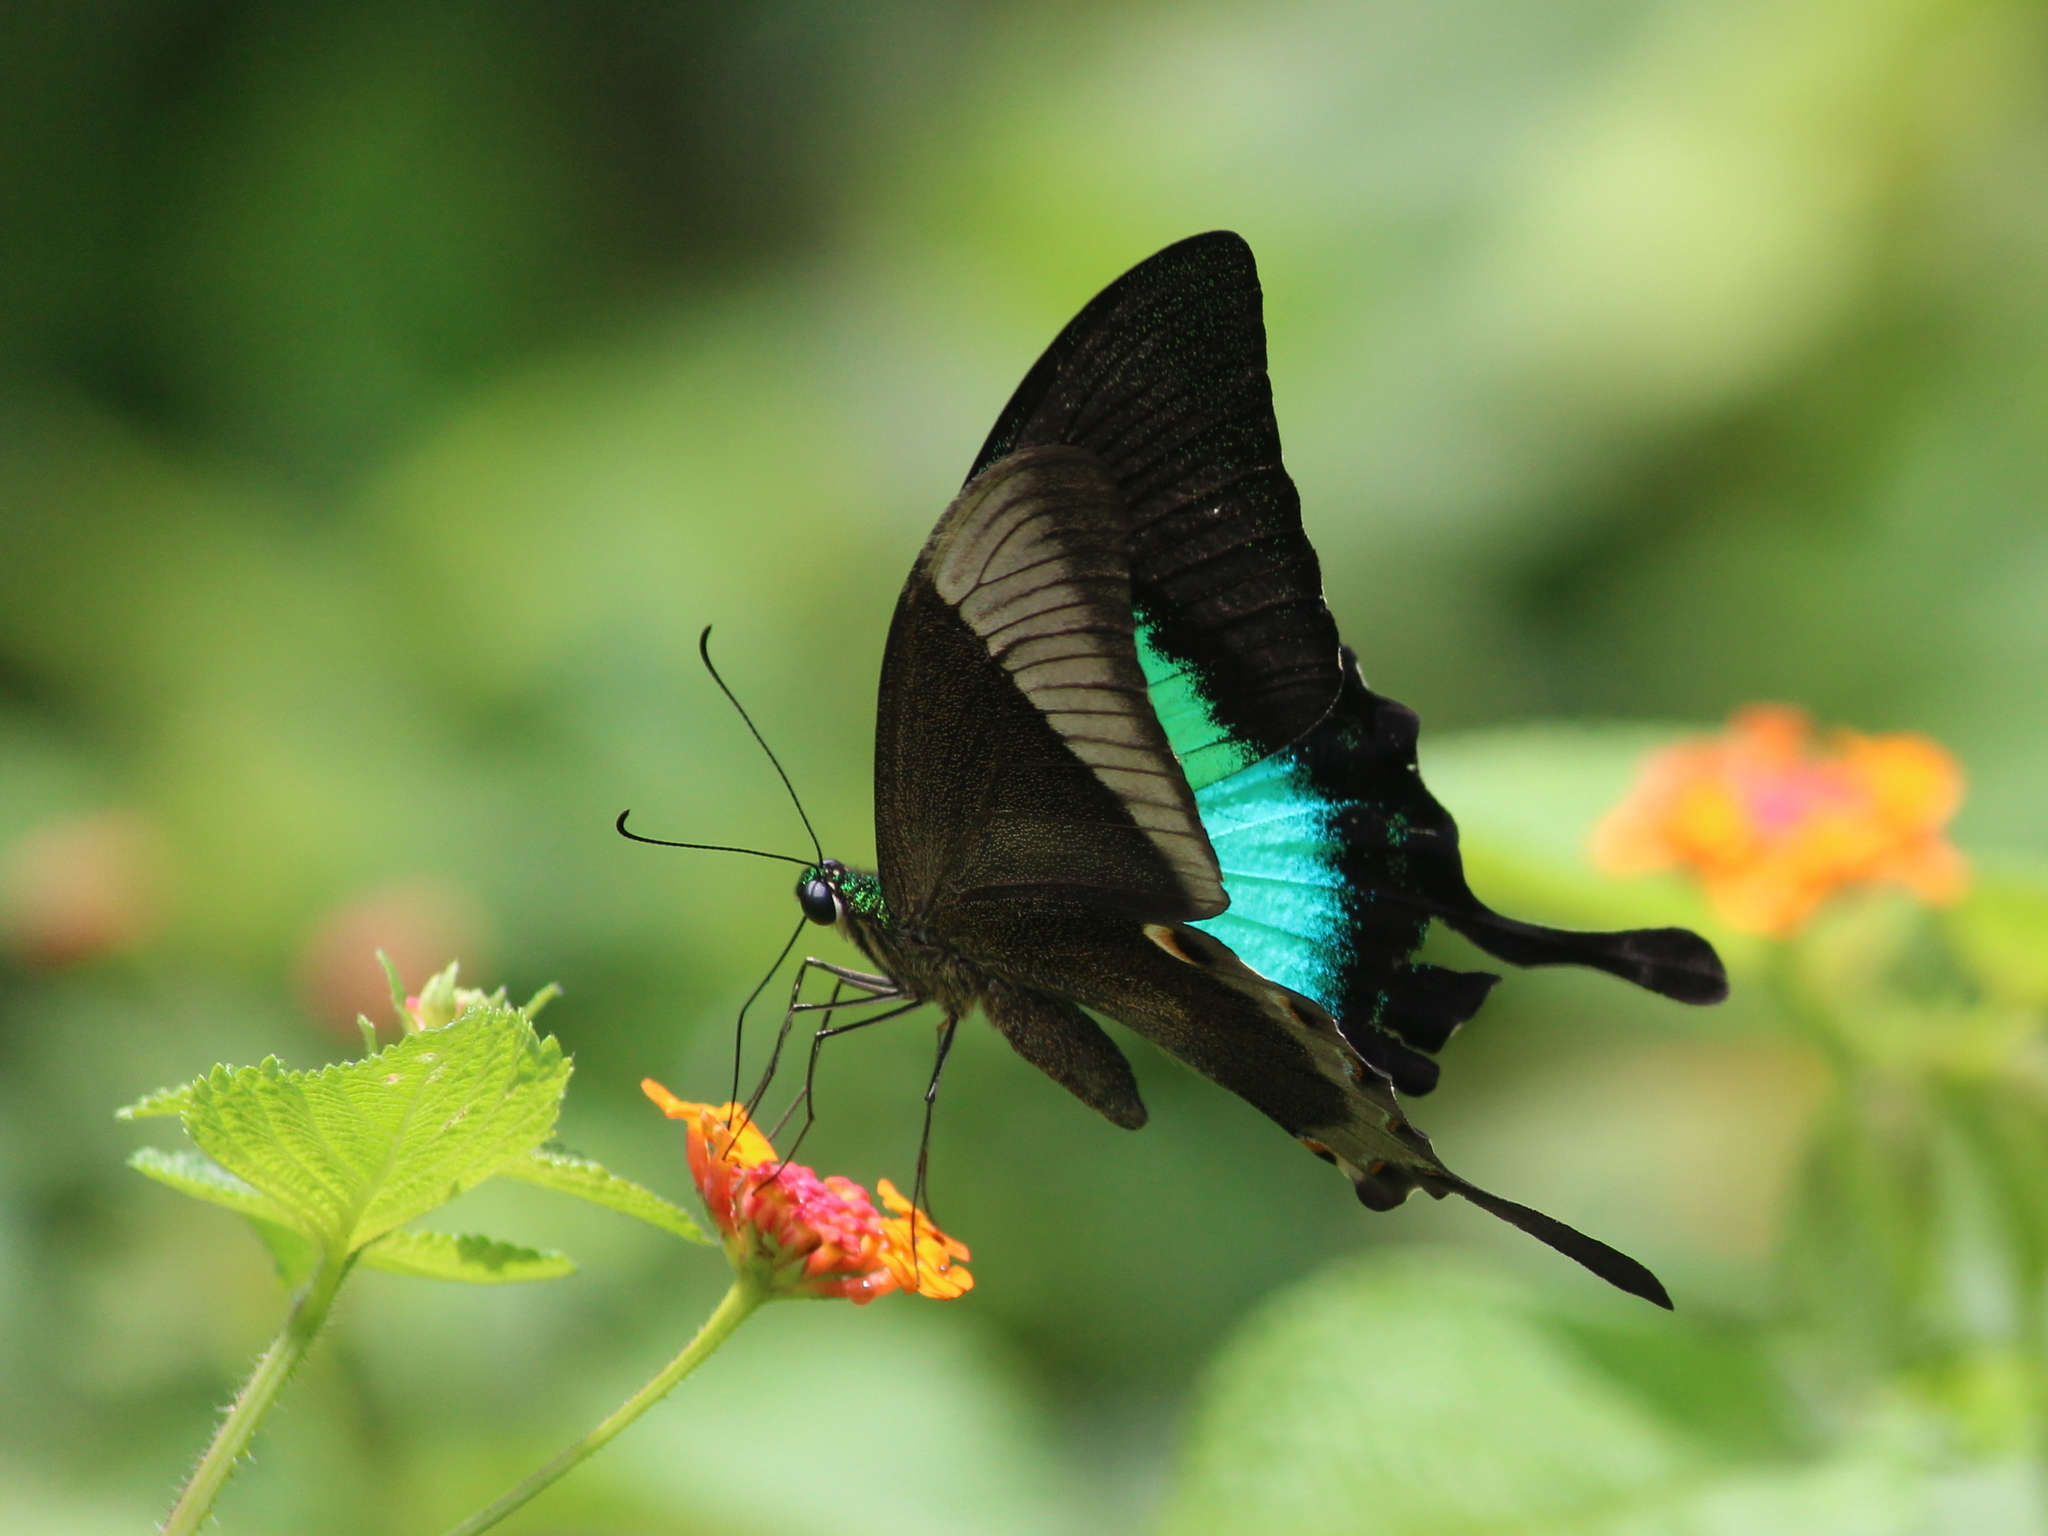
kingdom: Animalia
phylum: Arthropoda
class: Insecta
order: Lepidoptera
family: Papilionidae
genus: Papilio
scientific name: Papilio buddha
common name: Malabar banded peacock
